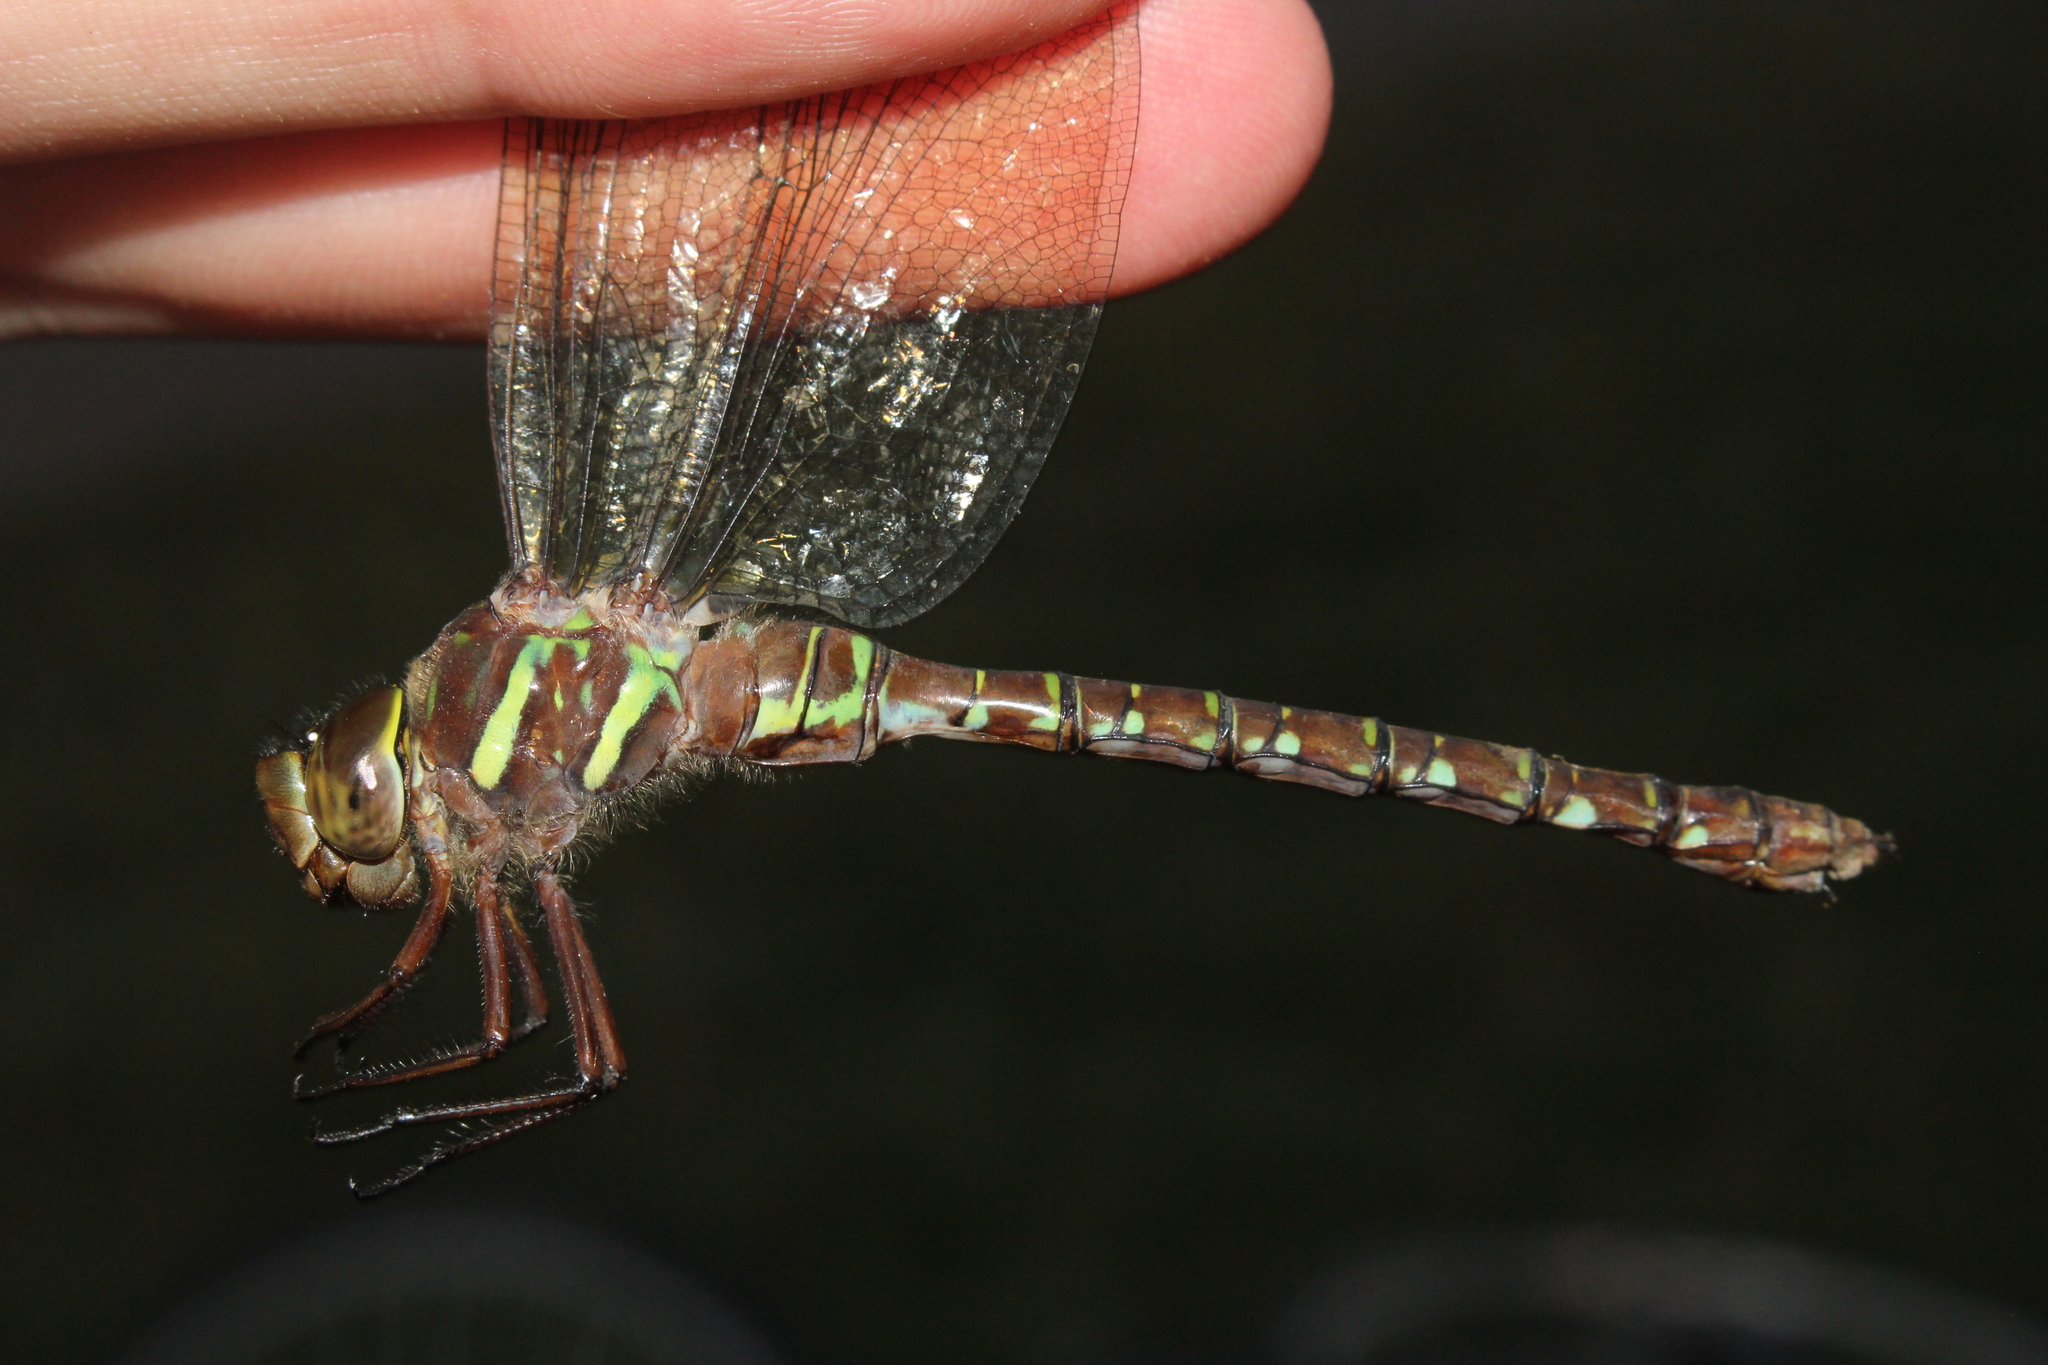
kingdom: Animalia
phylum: Arthropoda
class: Insecta
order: Odonata
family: Aeshnidae
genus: Aeshna
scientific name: Aeshna umbrosa
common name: Shadow darner
